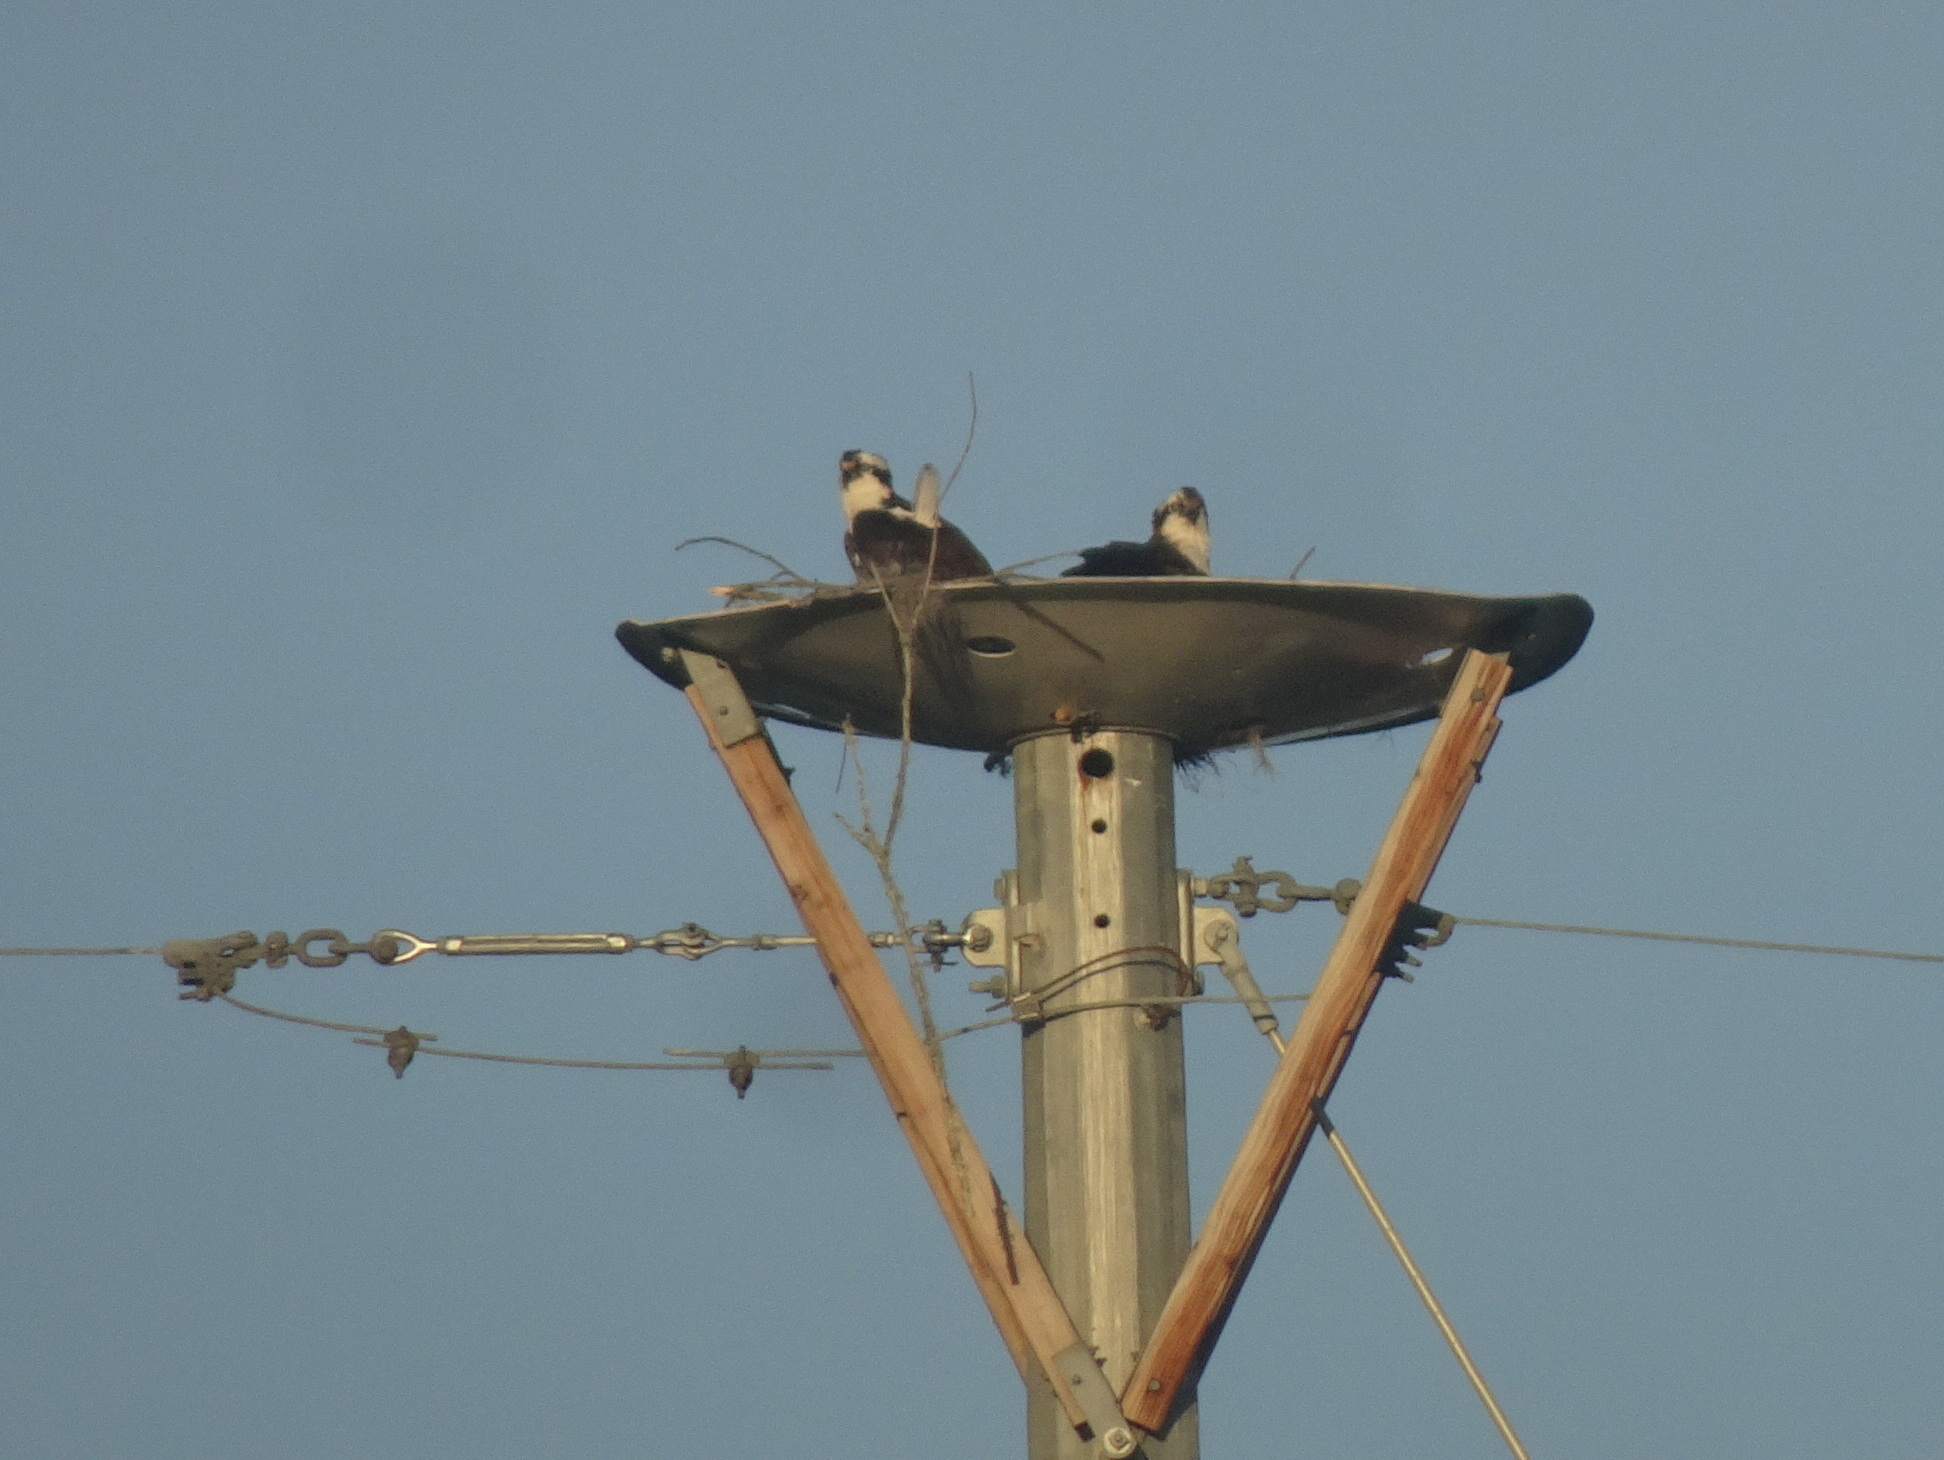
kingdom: Animalia
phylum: Chordata
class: Aves
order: Accipitriformes
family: Pandionidae
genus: Pandion
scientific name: Pandion haliaetus
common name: Osprey
